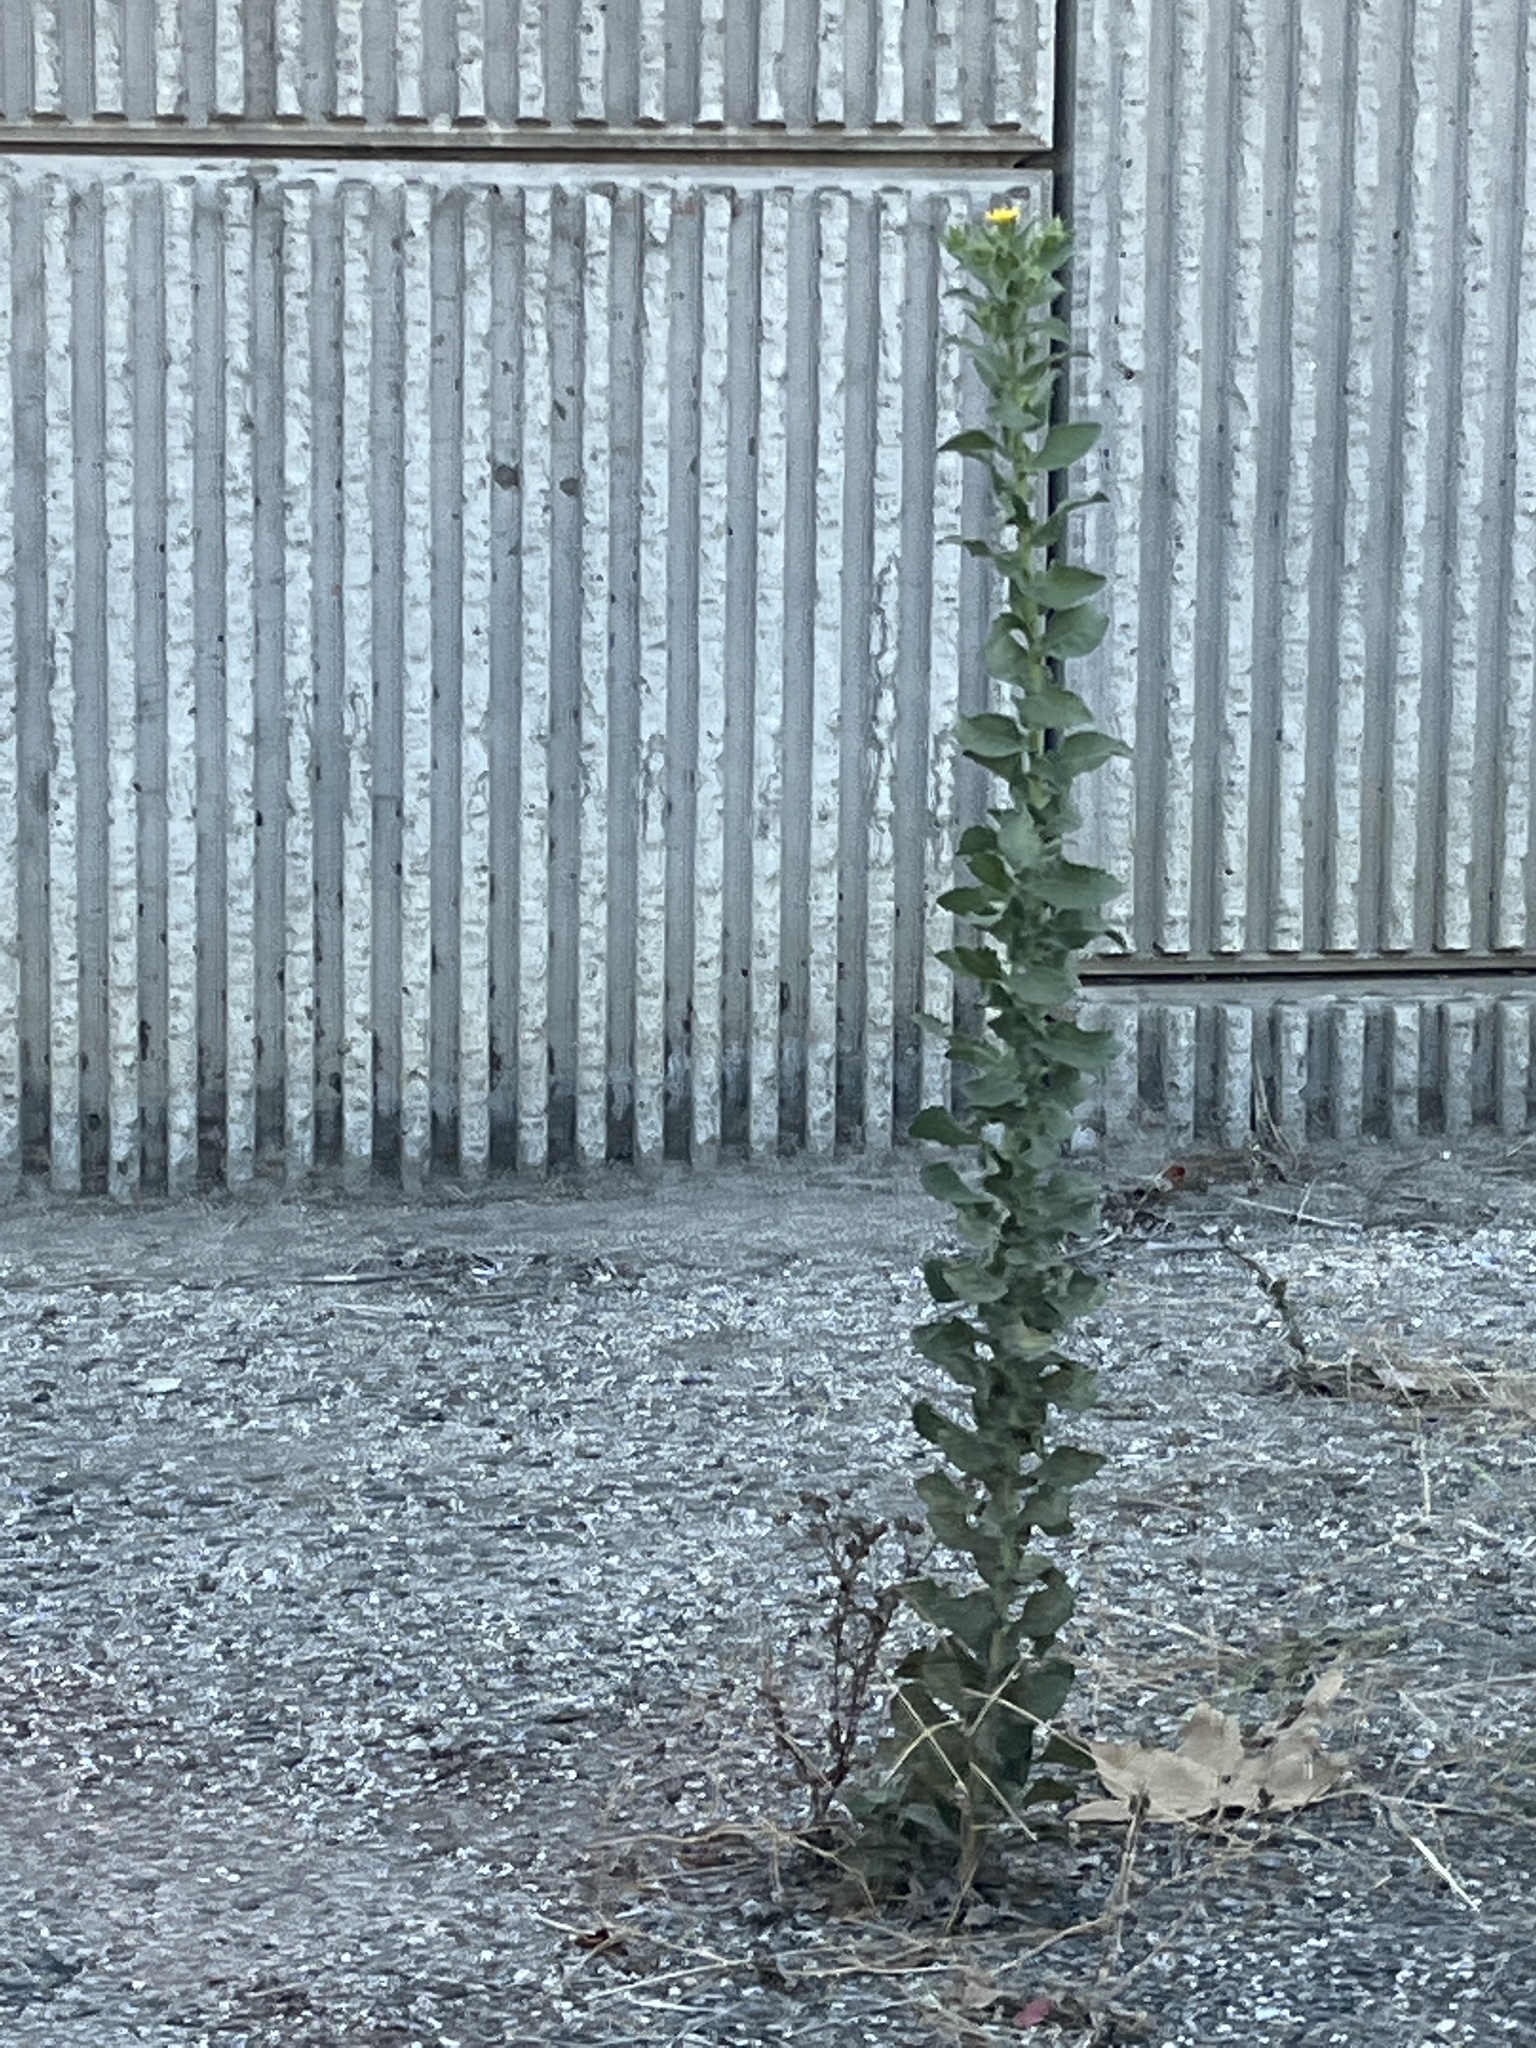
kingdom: Plantae
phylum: Tracheophyta
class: Magnoliopsida
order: Asterales
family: Asteraceae
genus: Heterotheca
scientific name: Heterotheca grandiflora
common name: Telegraphweed
